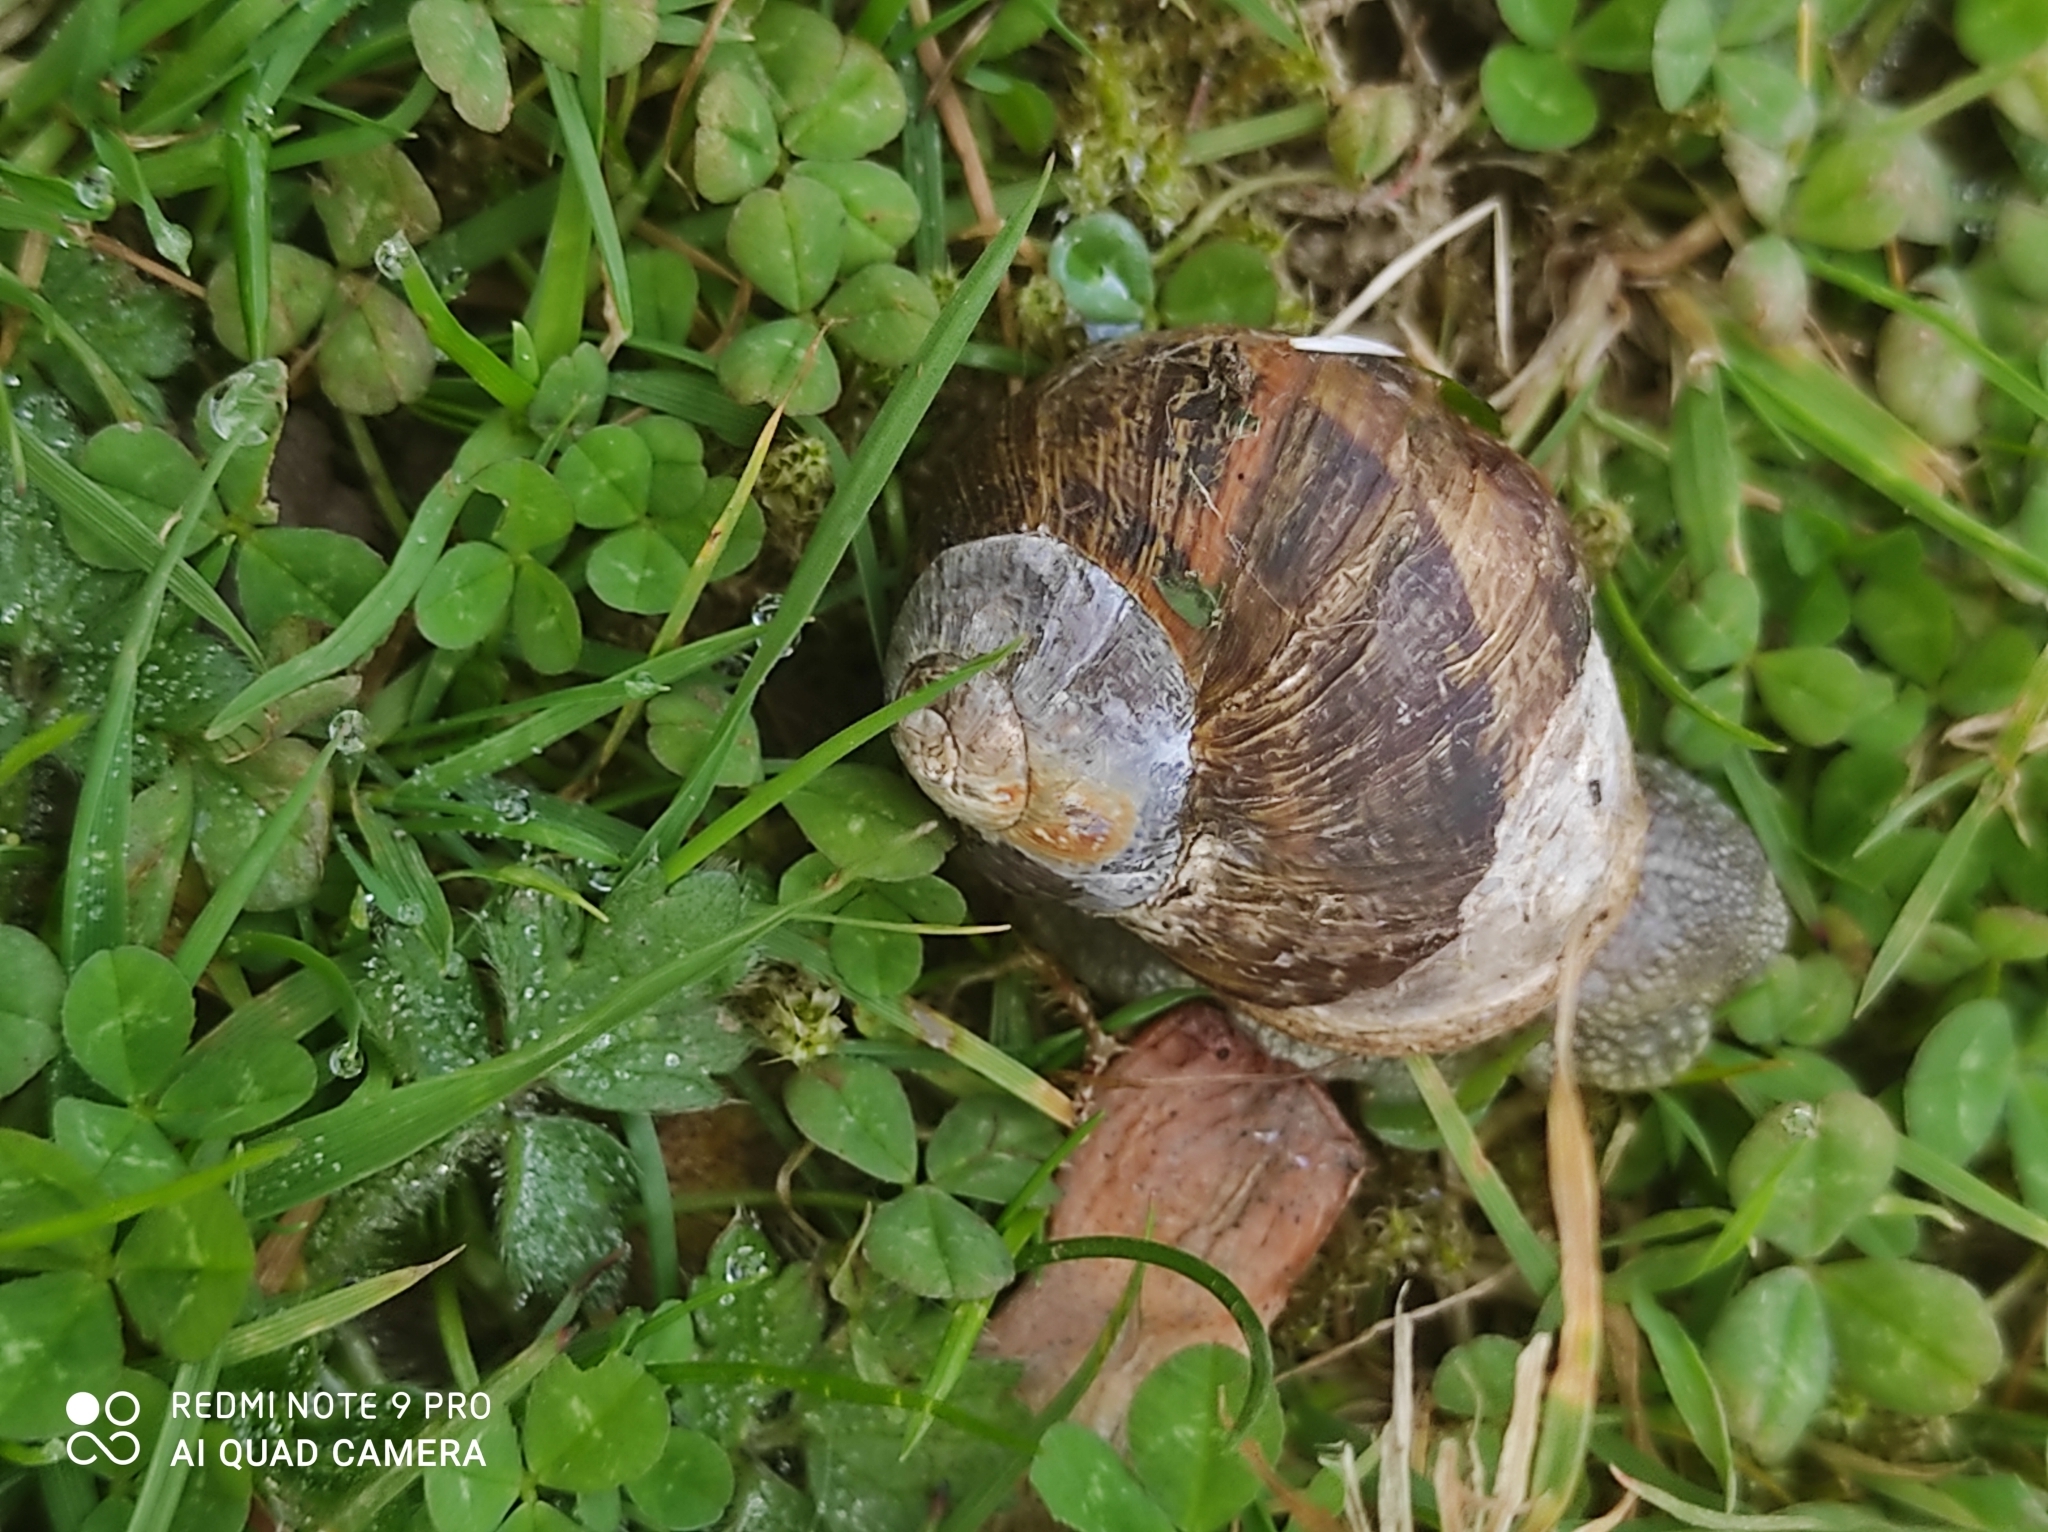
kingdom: Animalia
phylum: Mollusca
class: Gastropoda
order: Stylommatophora
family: Helicidae
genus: Cornu
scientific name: Cornu aspersum
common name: Brown garden snail
